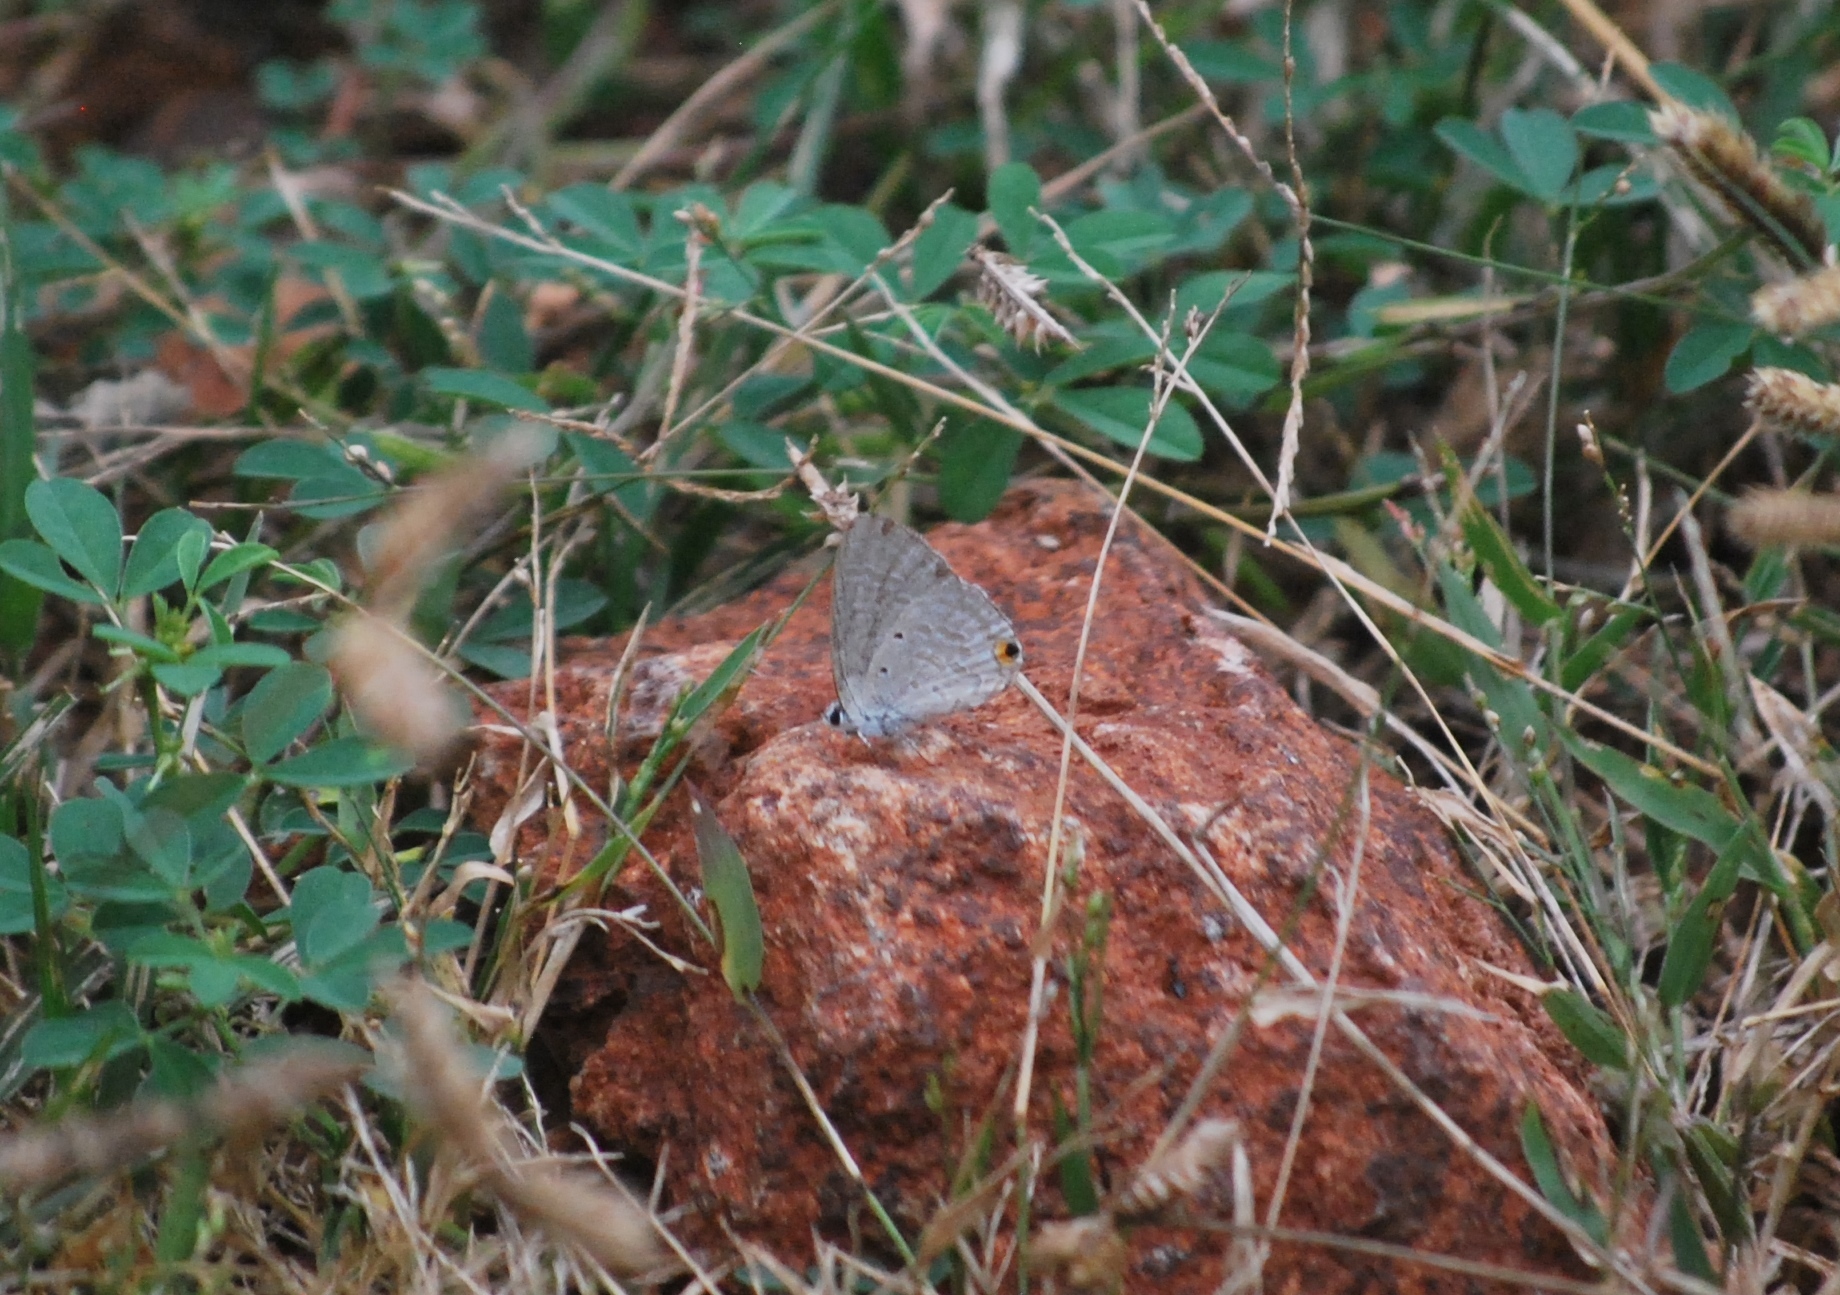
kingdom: Animalia
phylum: Arthropoda
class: Insecta
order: Lepidoptera
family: Lycaenidae
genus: Catochrysops
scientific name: Catochrysops strabo
